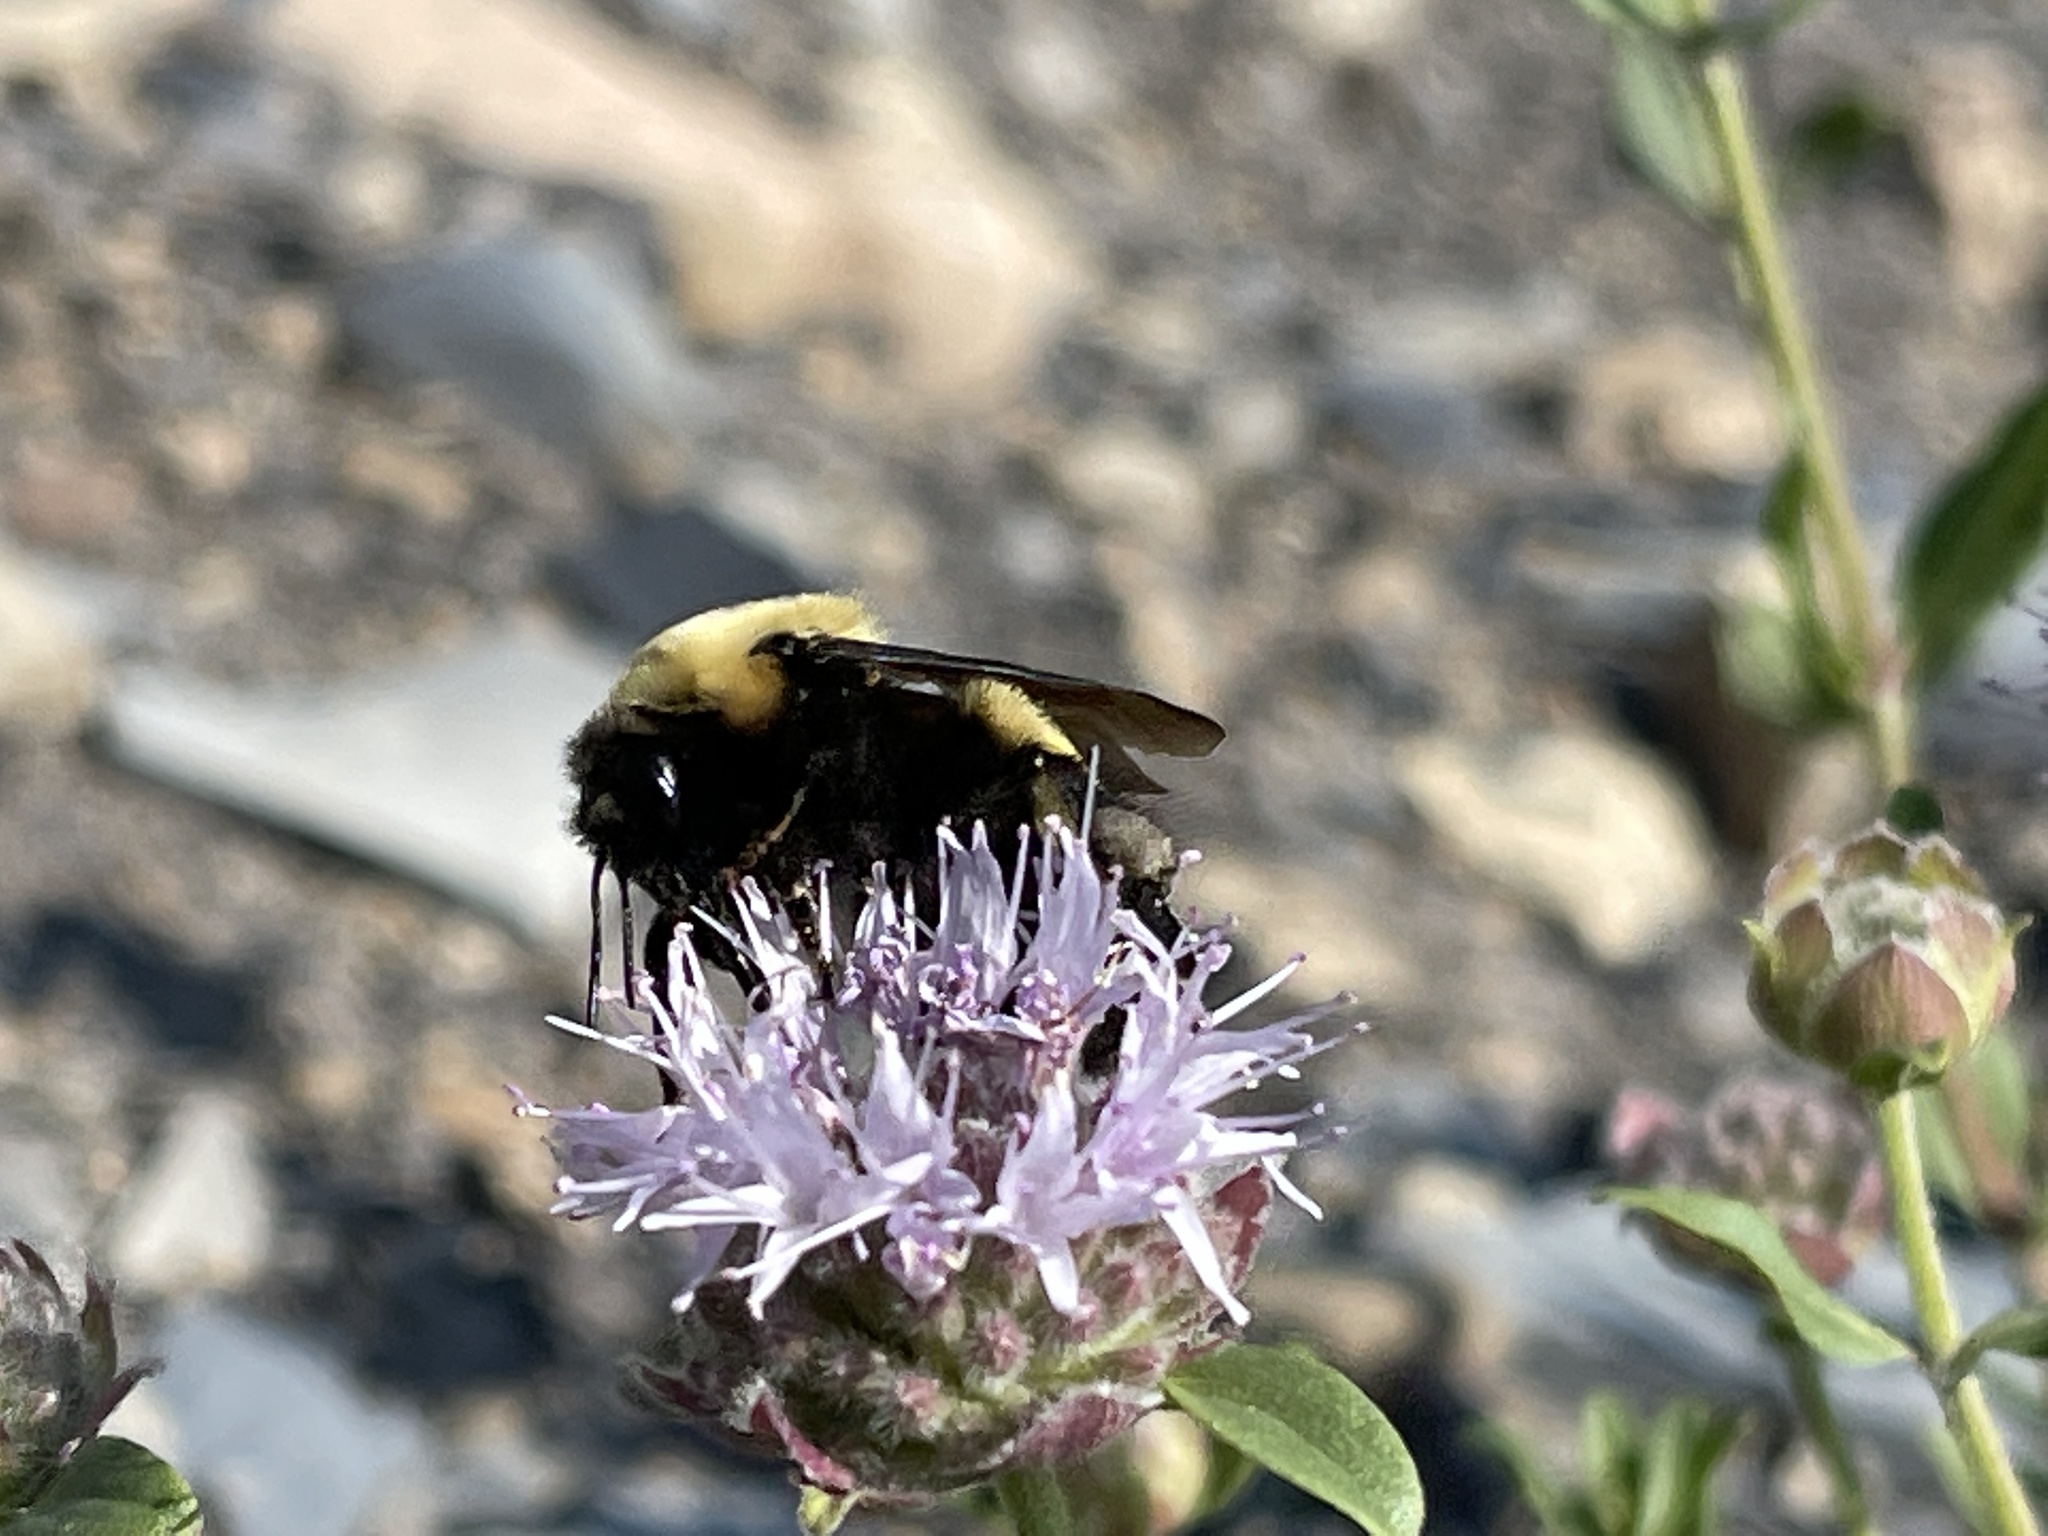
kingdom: Animalia
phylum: Arthropoda
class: Insecta
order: Hymenoptera
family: Apidae
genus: Bombus
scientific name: Bombus nevadensis
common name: Nevada bumble bee
